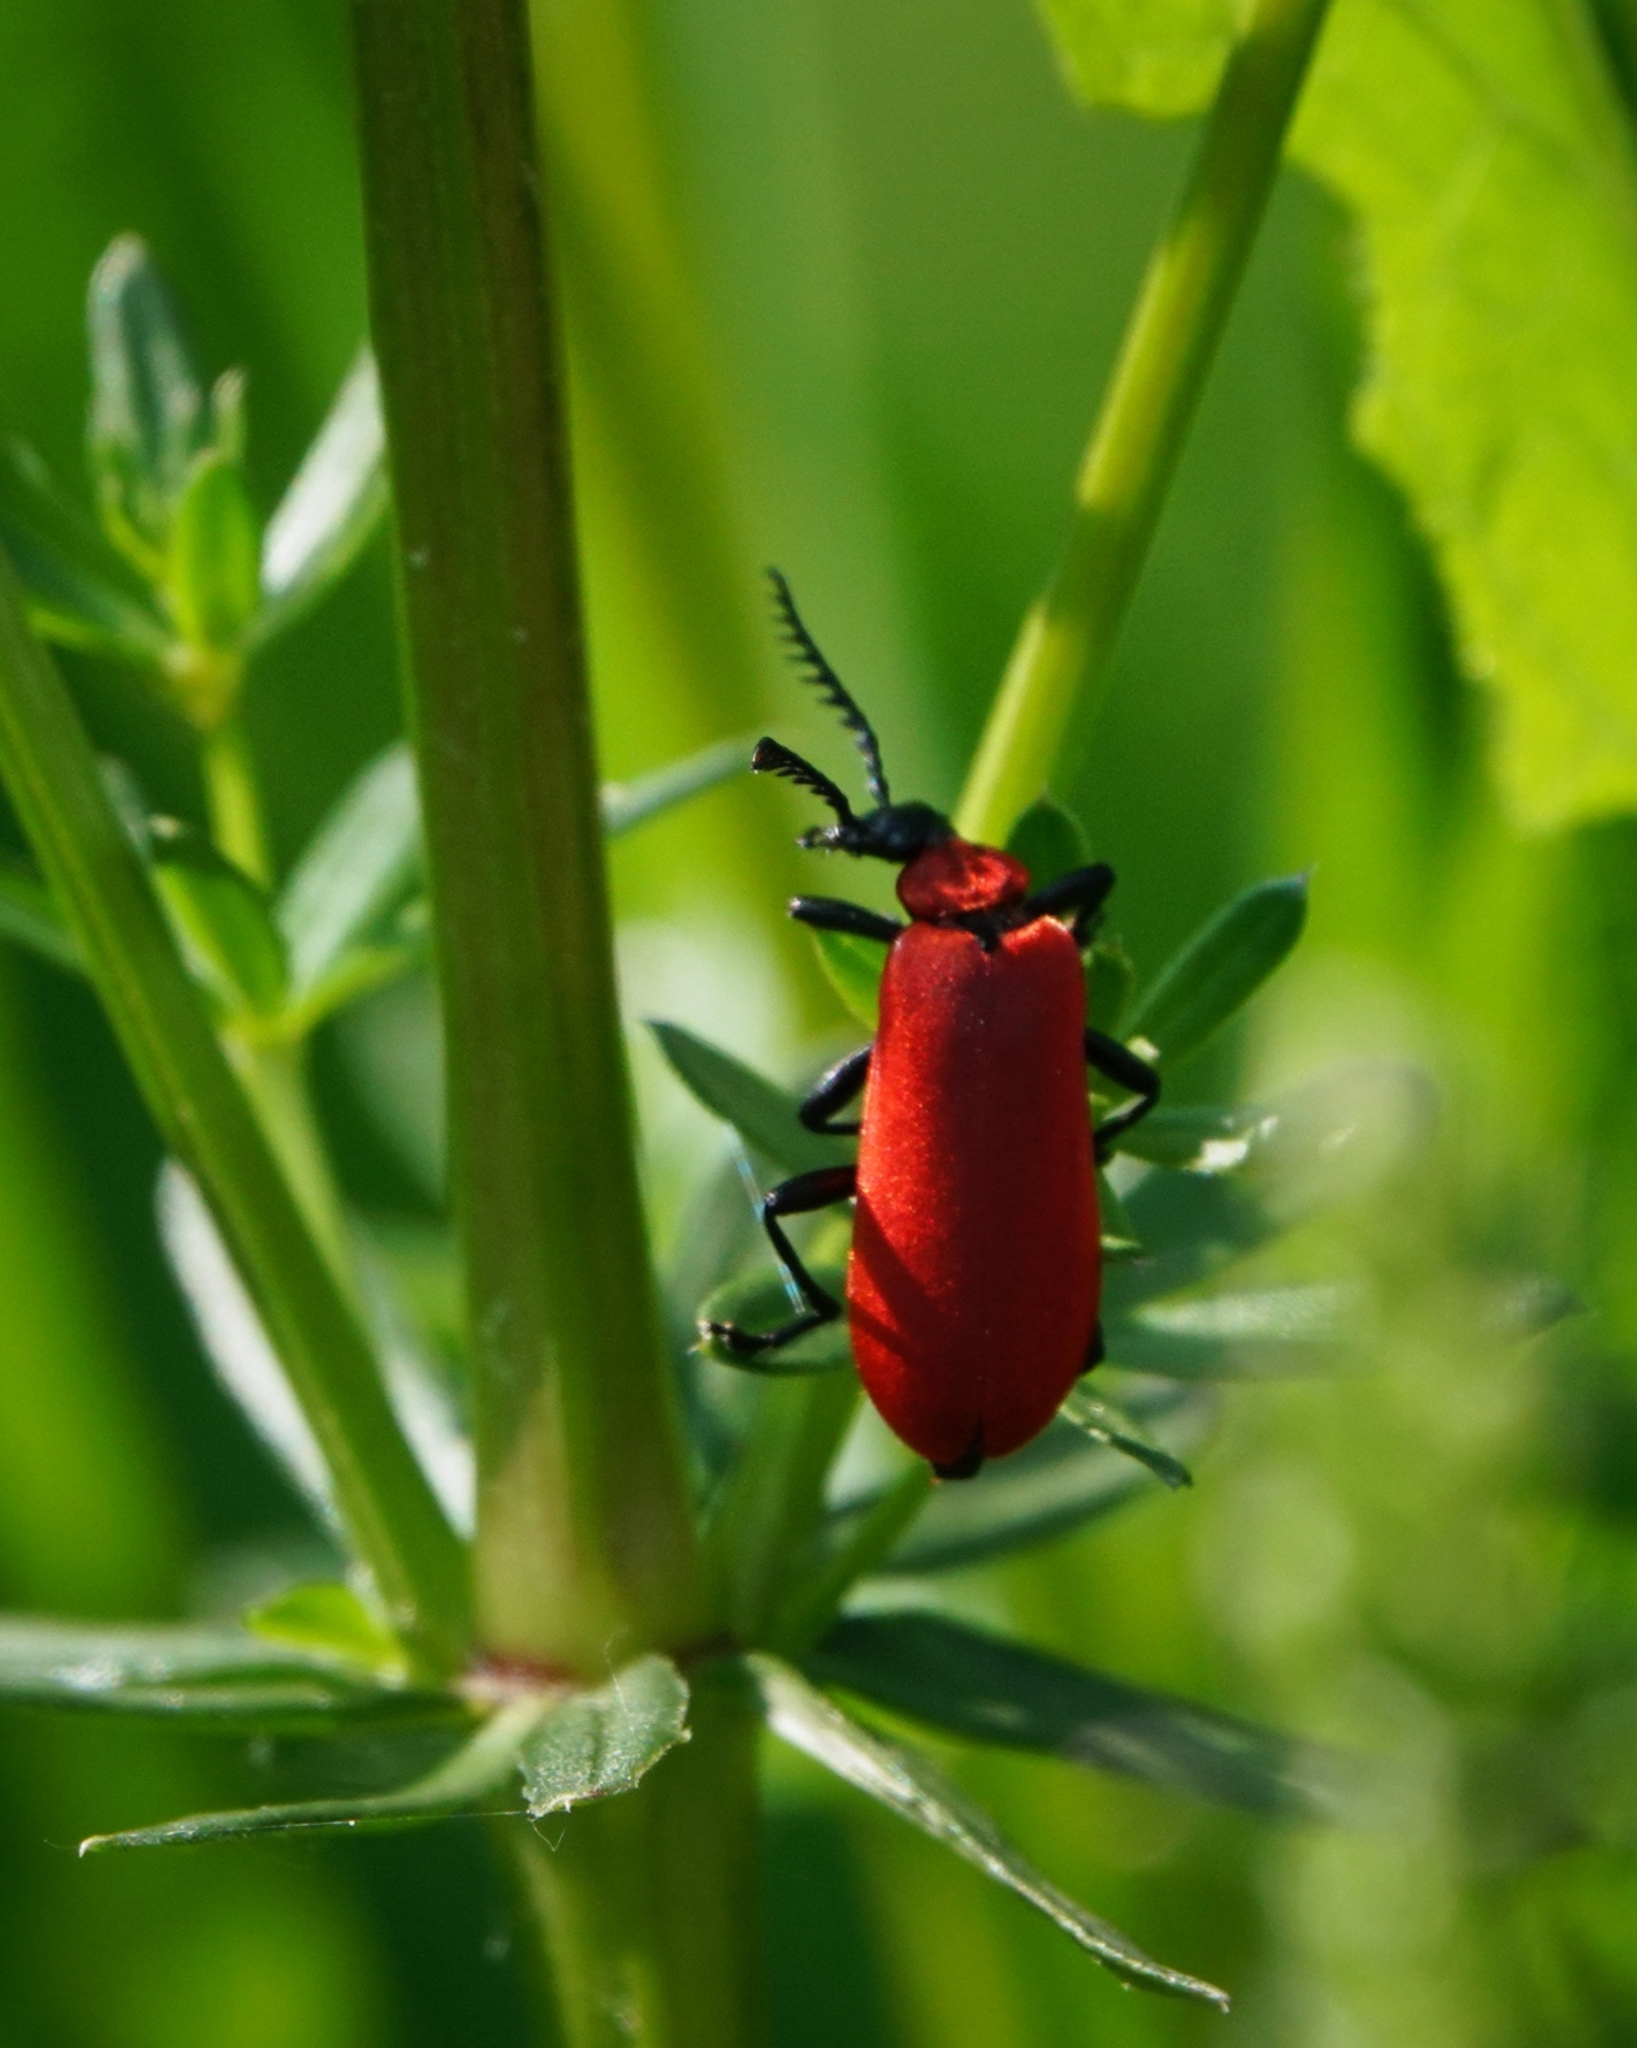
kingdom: Animalia
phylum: Arthropoda
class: Insecta
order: Coleoptera
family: Pyrochroidae
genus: Pyrochroa
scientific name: Pyrochroa coccinea
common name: Black-headed cardinal beetle
